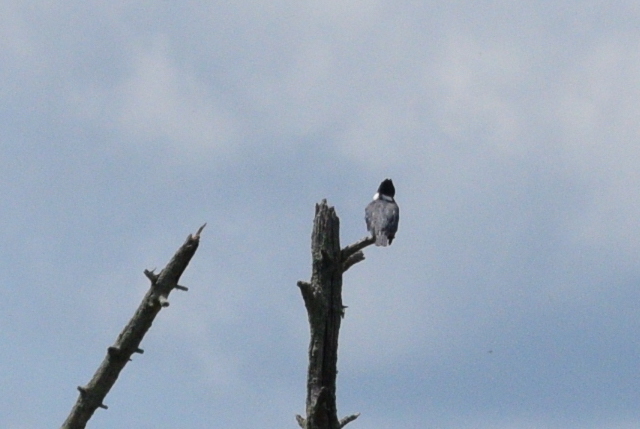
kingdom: Animalia
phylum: Chordata
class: Aves
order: Coraciiformes
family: Alcedinidae
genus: Megaceryle
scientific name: Megaceryle alcyon
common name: Belted kingfisher
